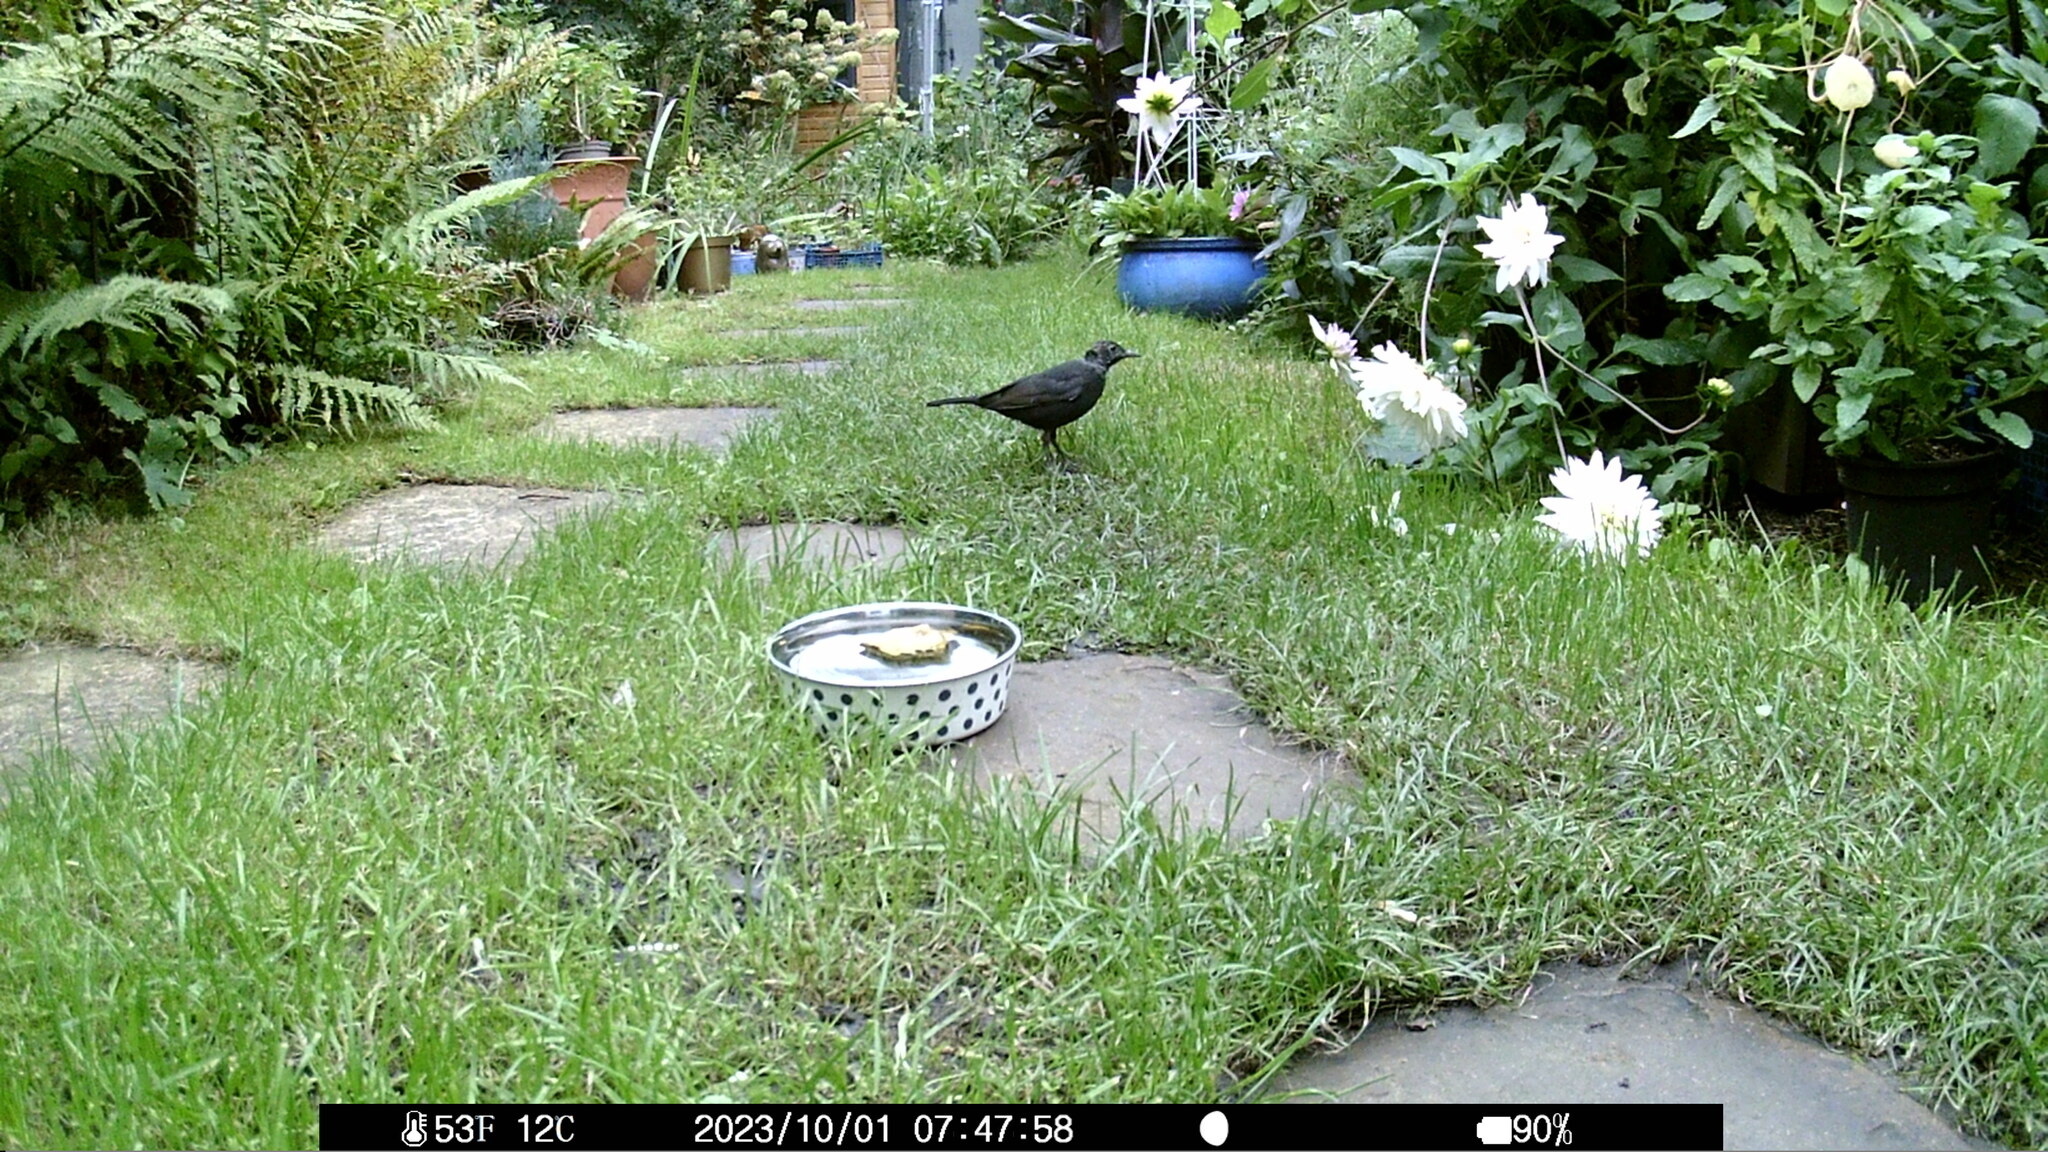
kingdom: Animalia
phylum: Chordata
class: Aves
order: Passeriformes
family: Turdidae
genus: Turdus
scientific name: Turdus merula
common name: Common blackbird
